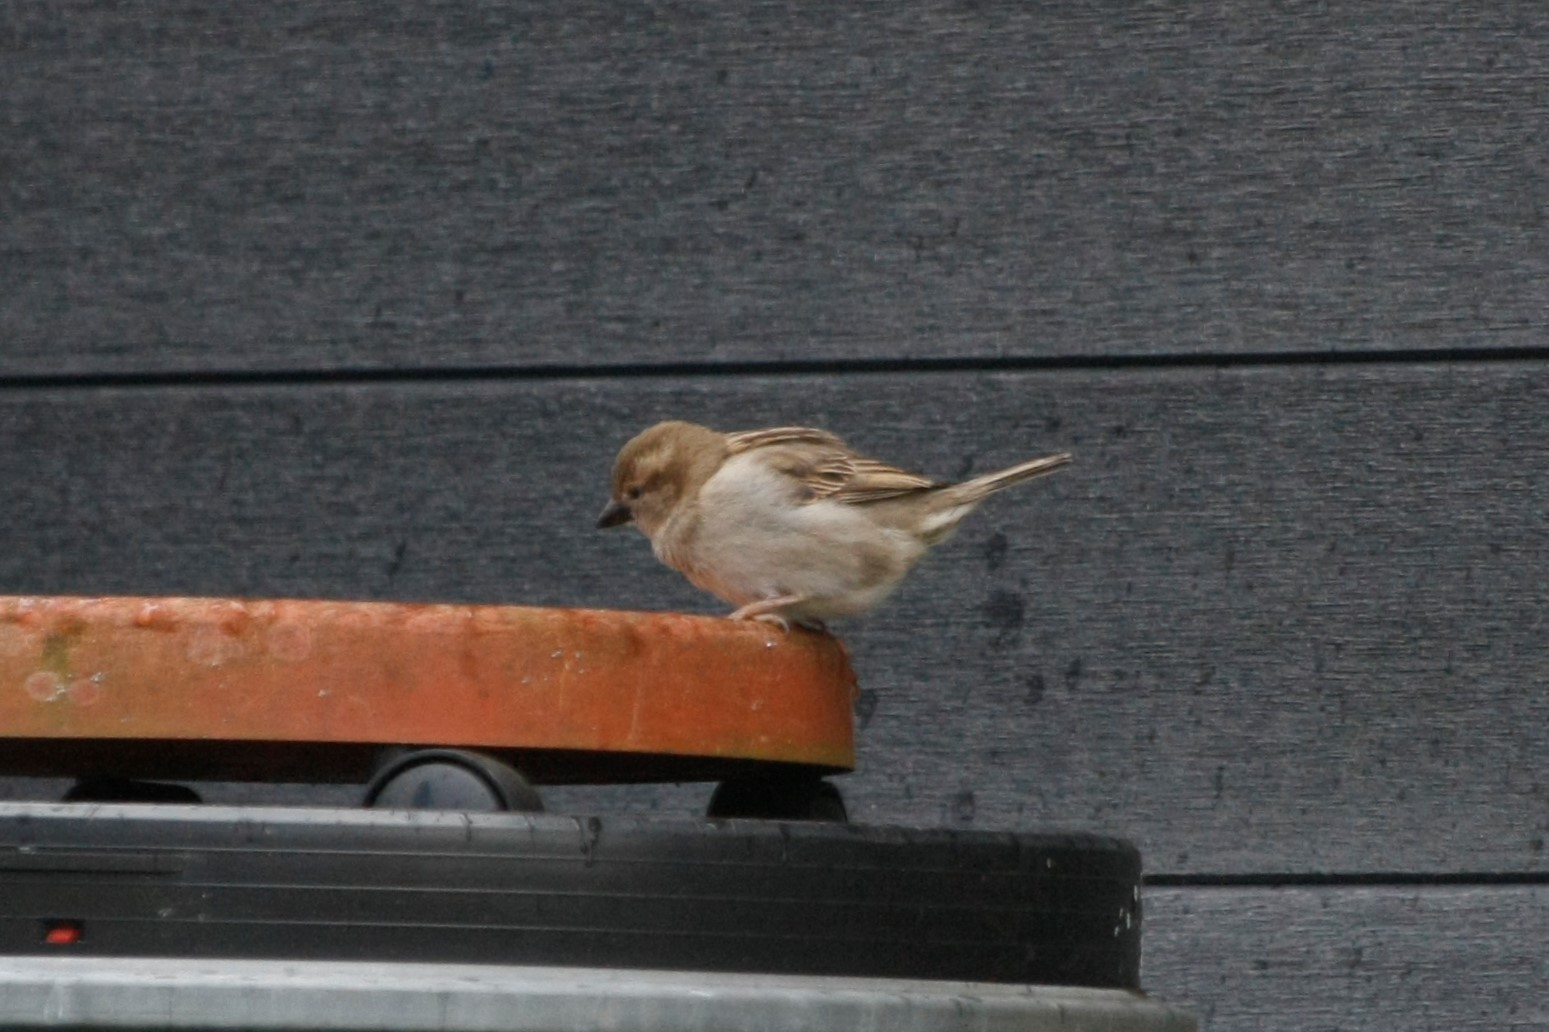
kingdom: Animalia
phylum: Chordata
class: Aves
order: Passeriformes
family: Passeridae
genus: Passer
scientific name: Passer domesticus
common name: House sparrow
